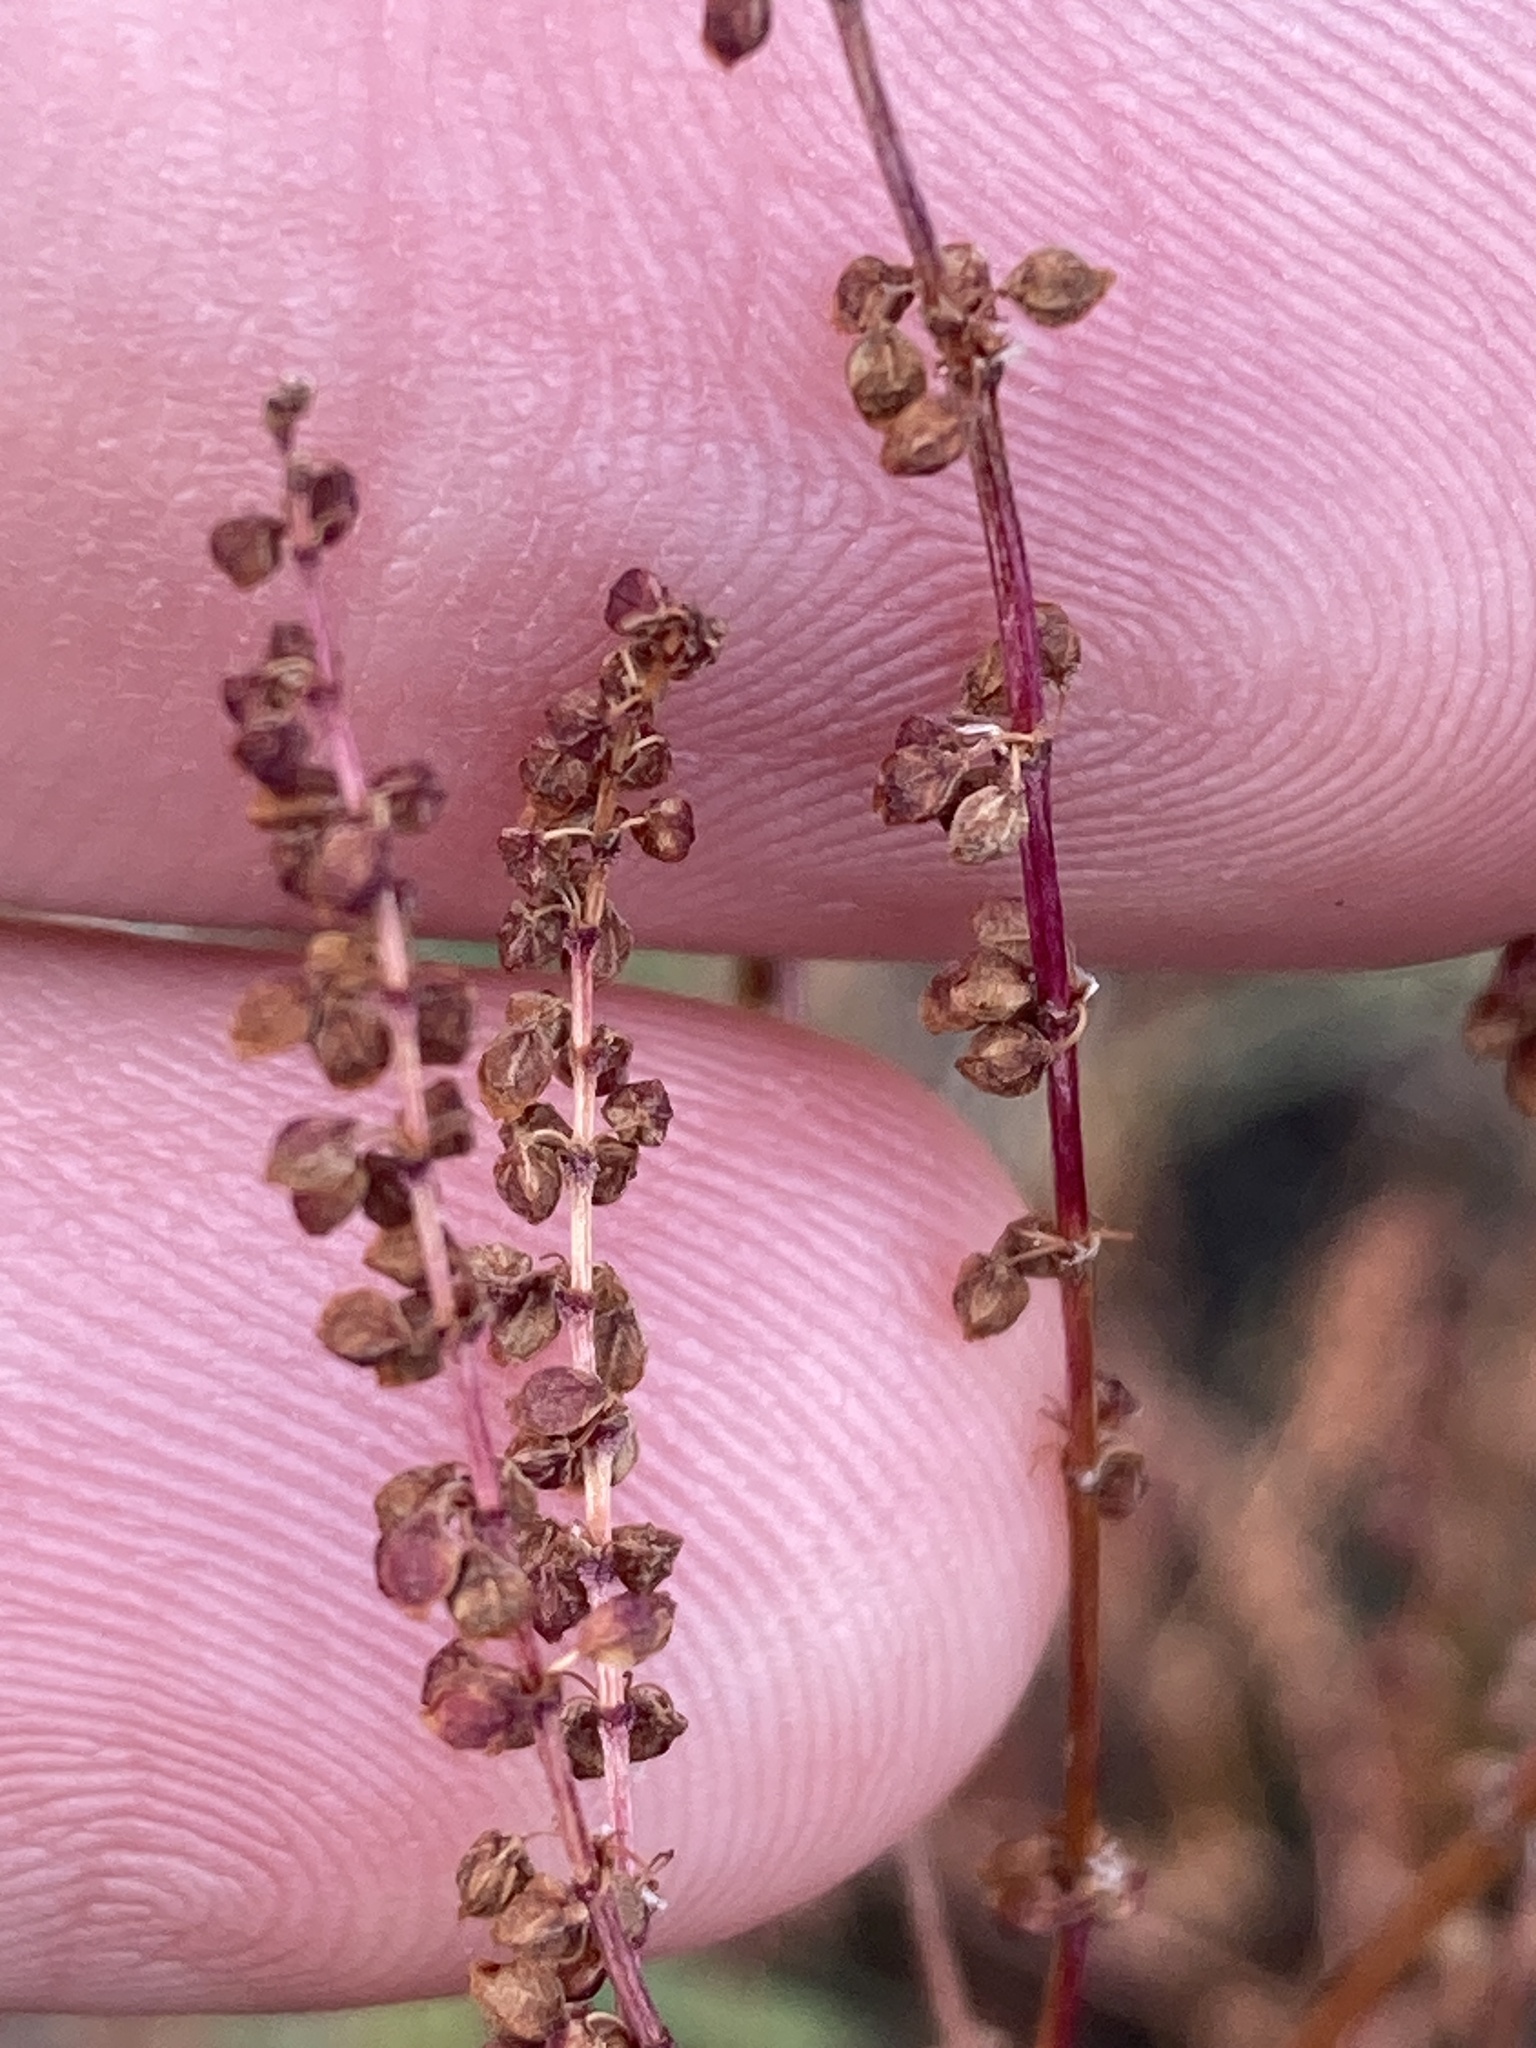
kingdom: Plantae
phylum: Tracheophyta
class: Magnoliopsida
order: Caryophyllales
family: Polygonaceae
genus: Rumex
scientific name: Rumex acetosella
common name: Common sheep sorrel
